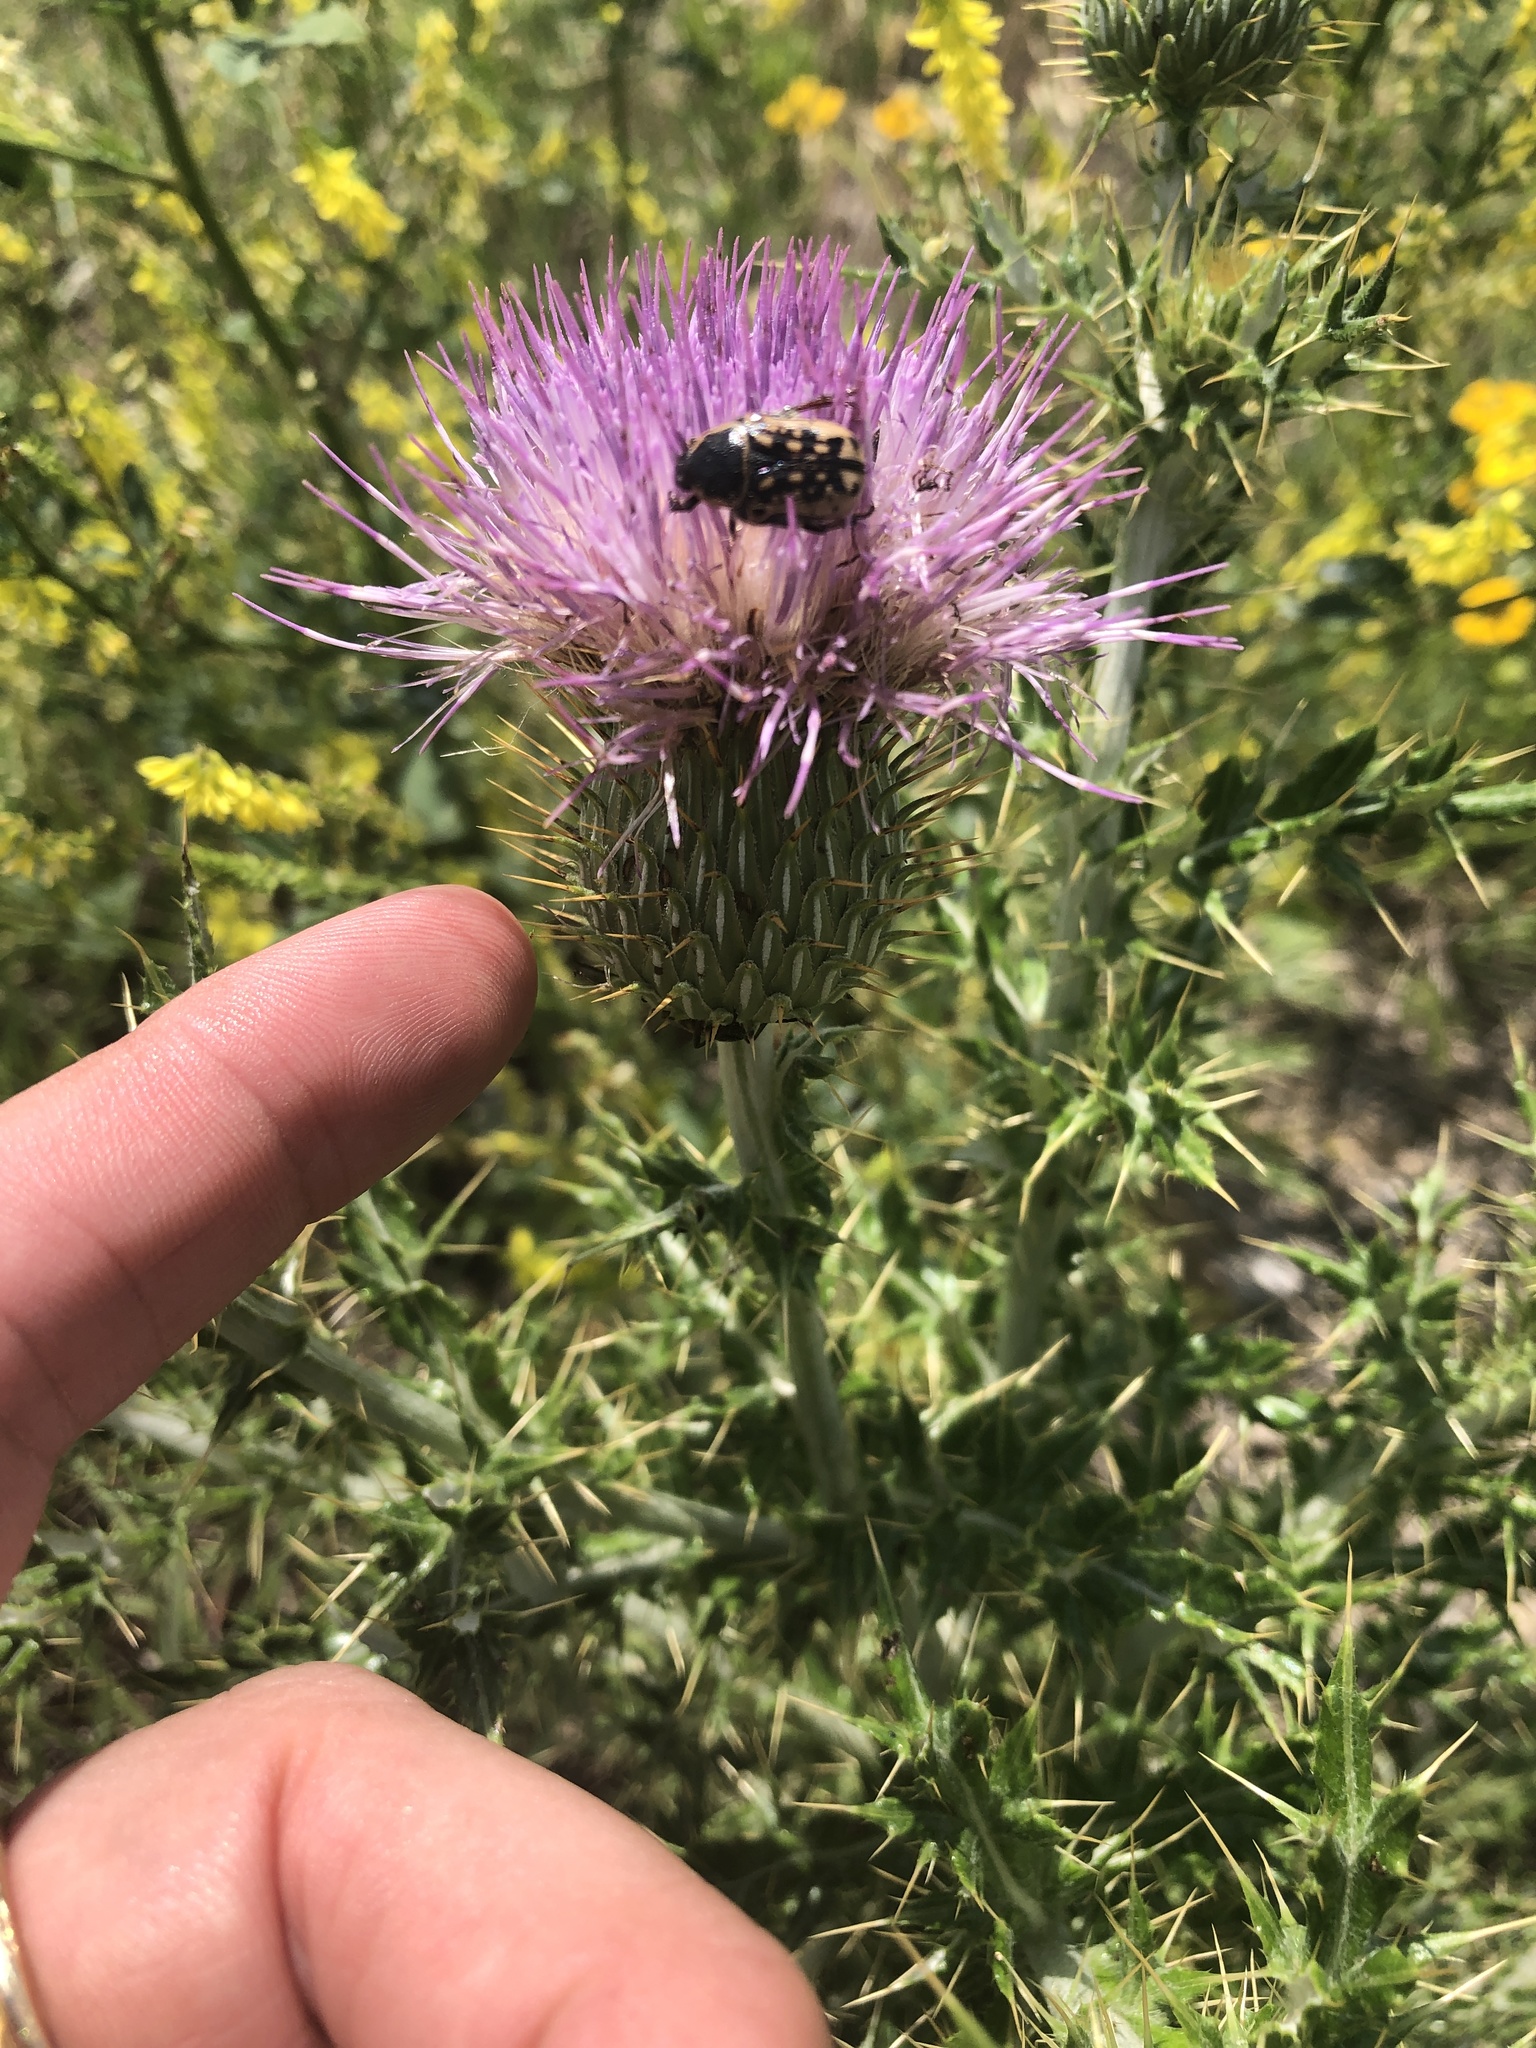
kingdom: Plantae
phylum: Tracheophyta
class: Magnoliopsida
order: Asterales
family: Asteraceae
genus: Cirsium
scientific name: Cirsium ochrocentrum
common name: Yellow-spine thistle
